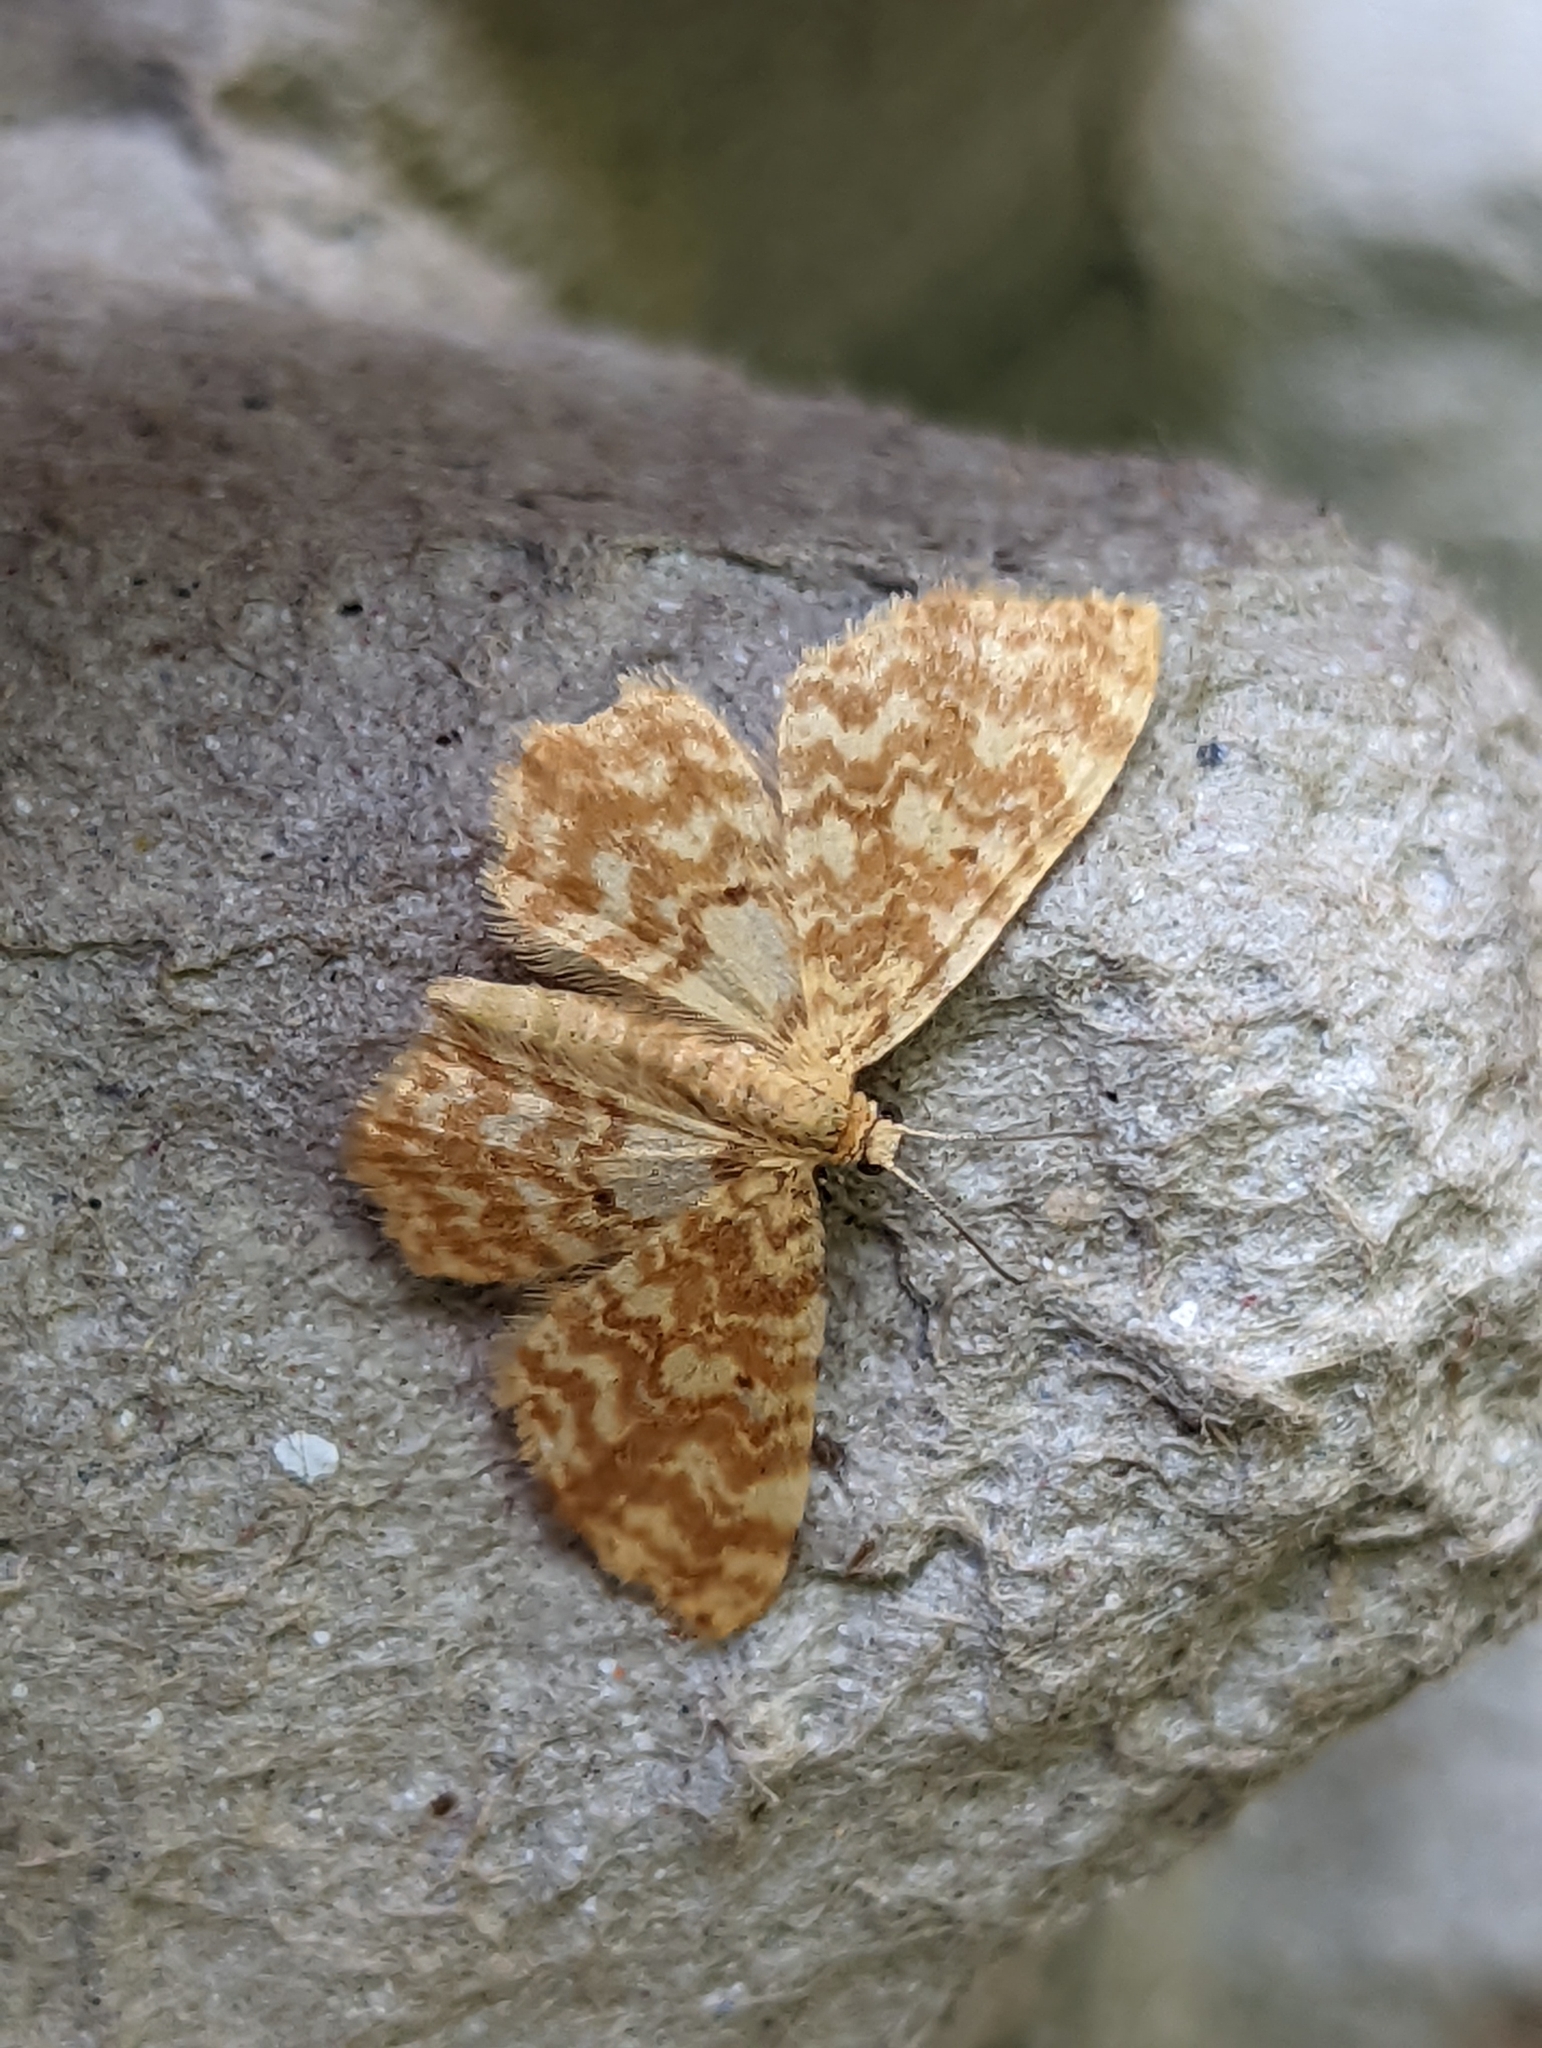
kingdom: Animalia
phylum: Arthropoda
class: Insecta
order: Lepidoptera
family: Geometridae
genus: Hydrelia
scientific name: Hydrelia flammeolaria
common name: Small yellow wave
